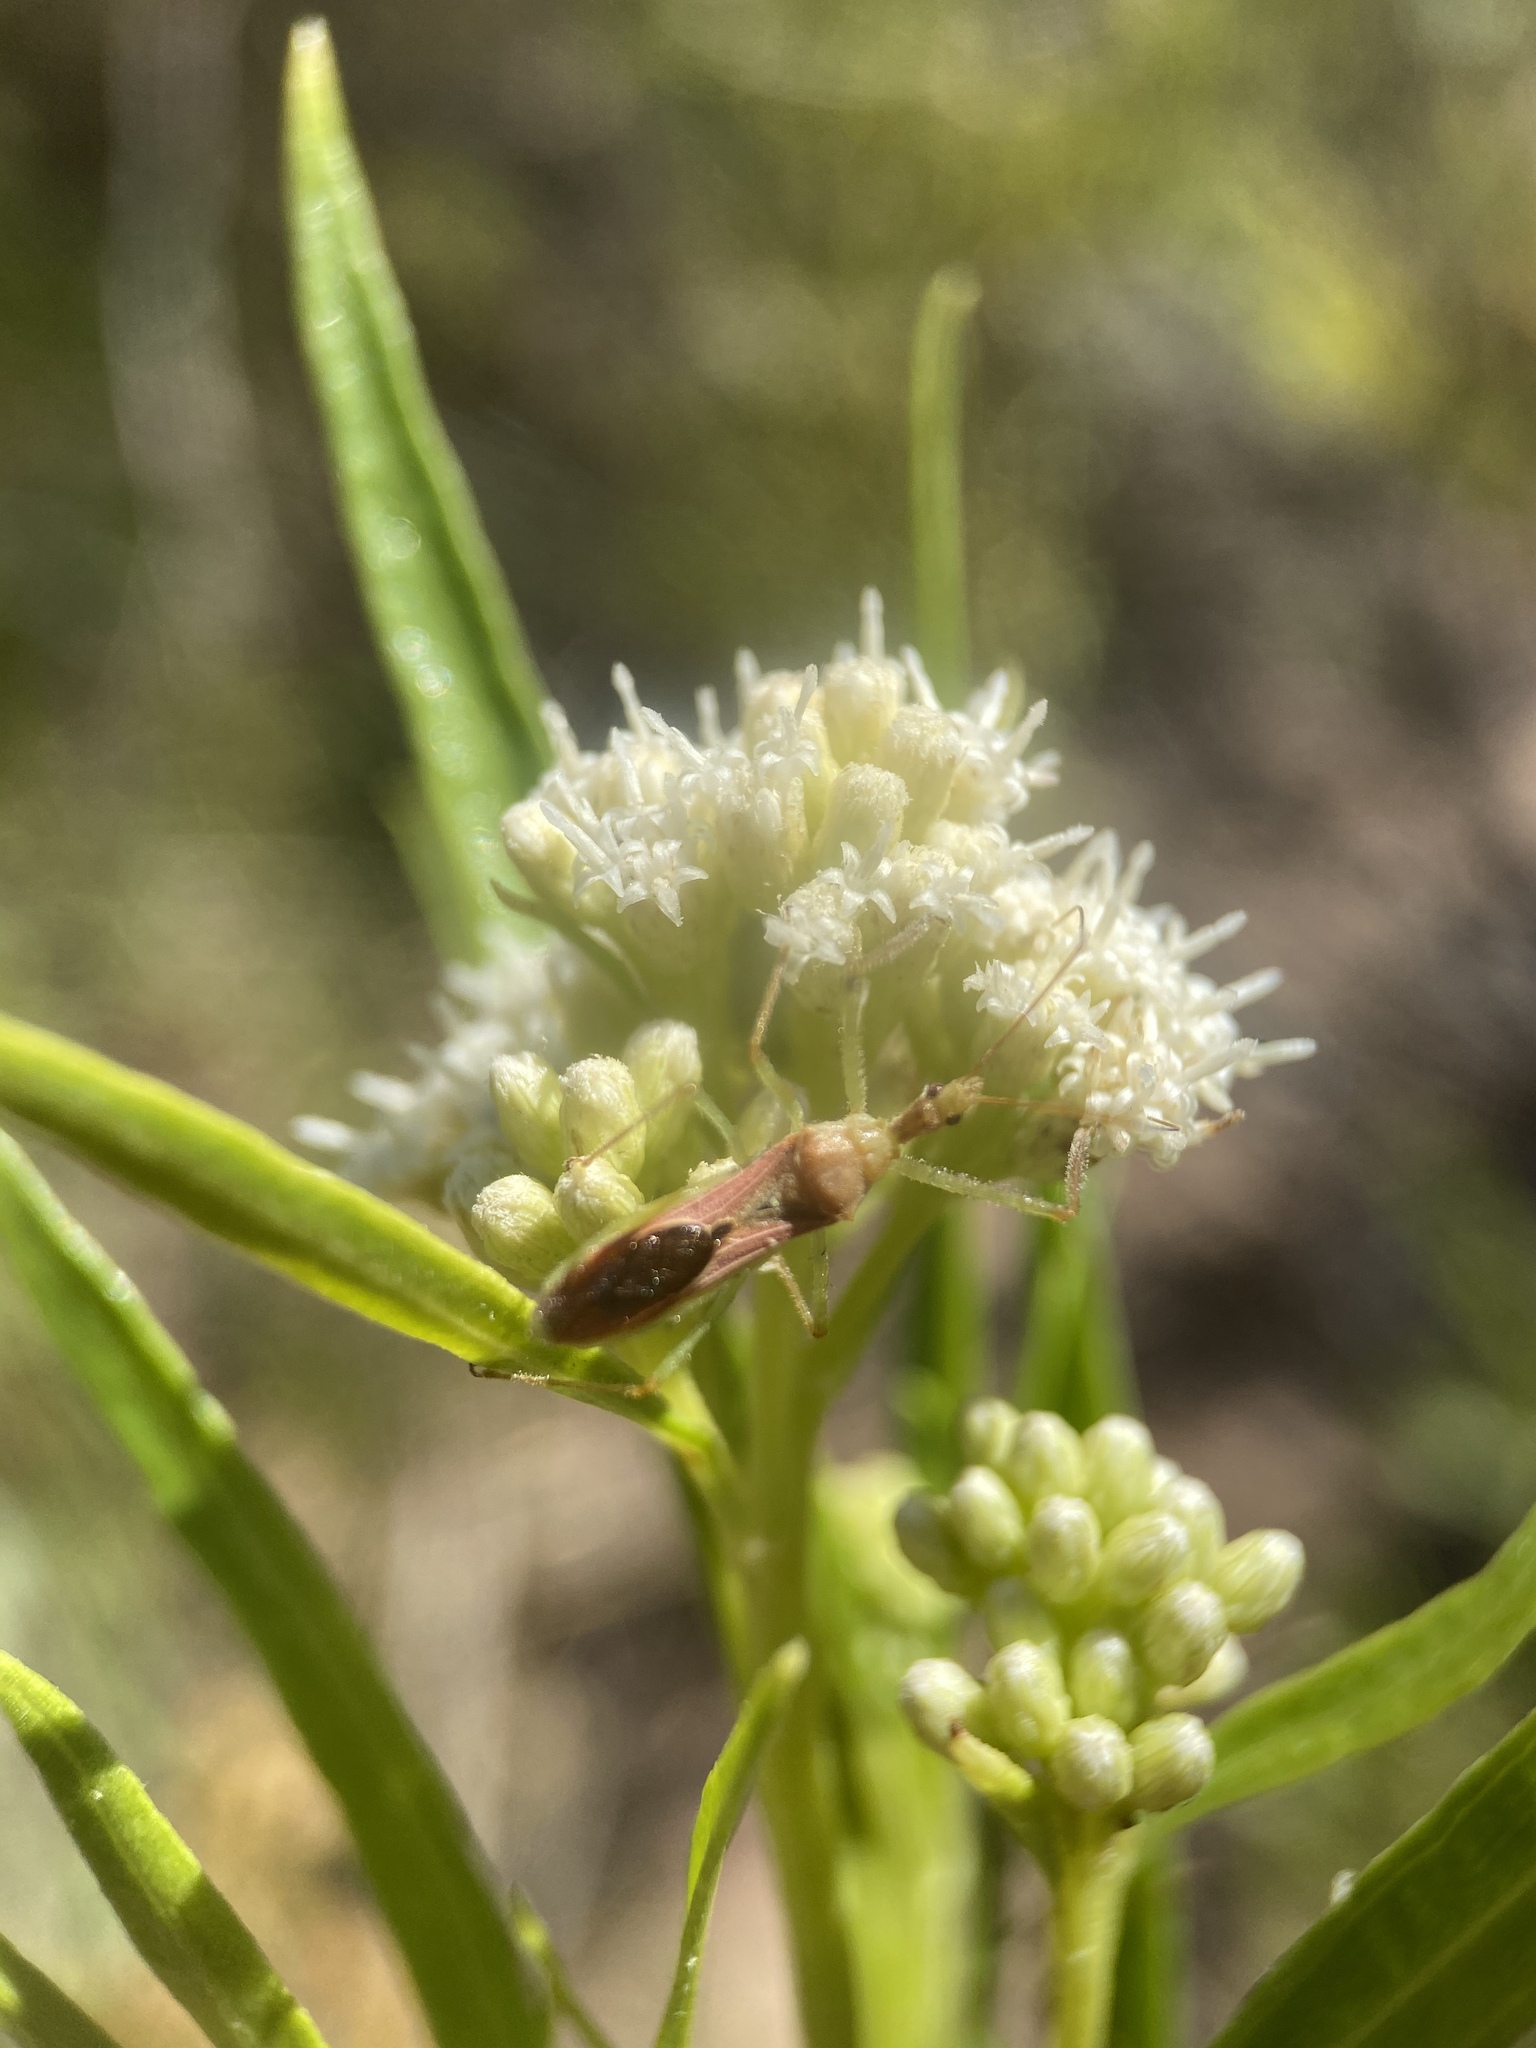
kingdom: Animalia
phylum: Arthropoda
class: Insecta
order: Hemiptera
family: Reduviidae
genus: Zelus
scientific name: Zelus renardii
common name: Assassin bug
